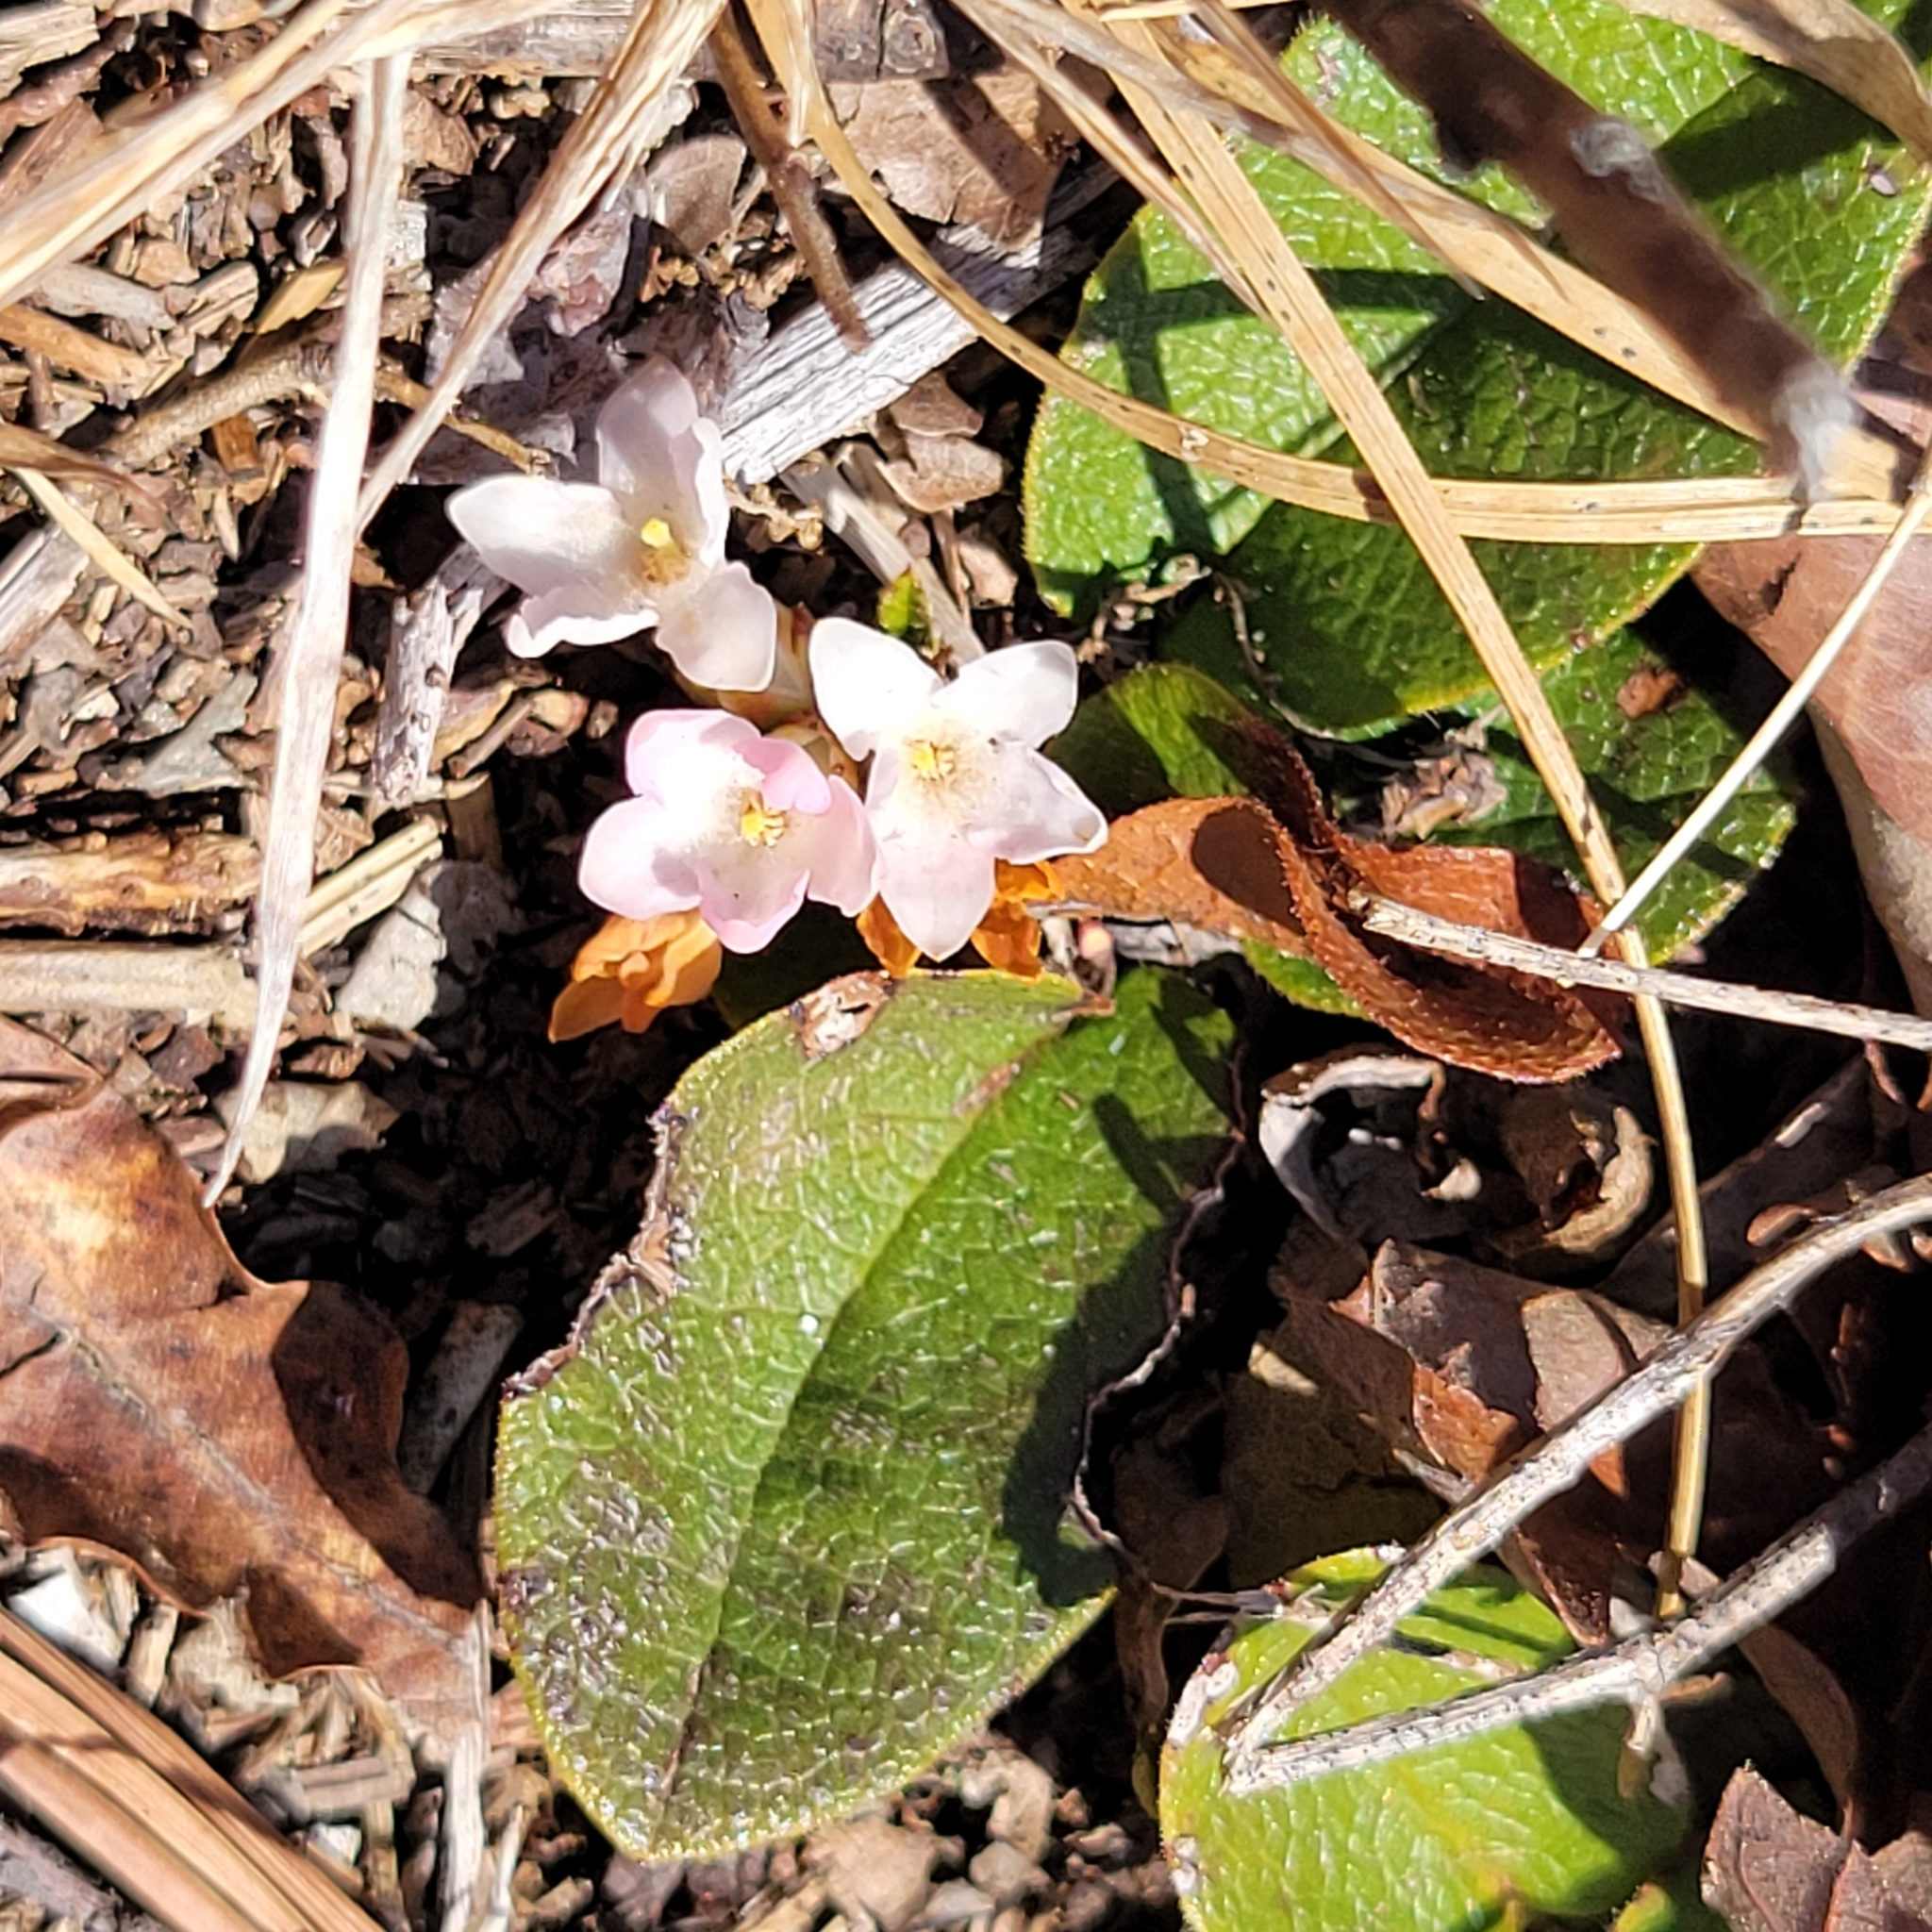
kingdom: Plantae
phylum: Tracheophyta
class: Magnoliopsida
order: Ericales
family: Ericaceae
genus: Epigaea
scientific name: Epigaea repens
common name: Gravelroot
